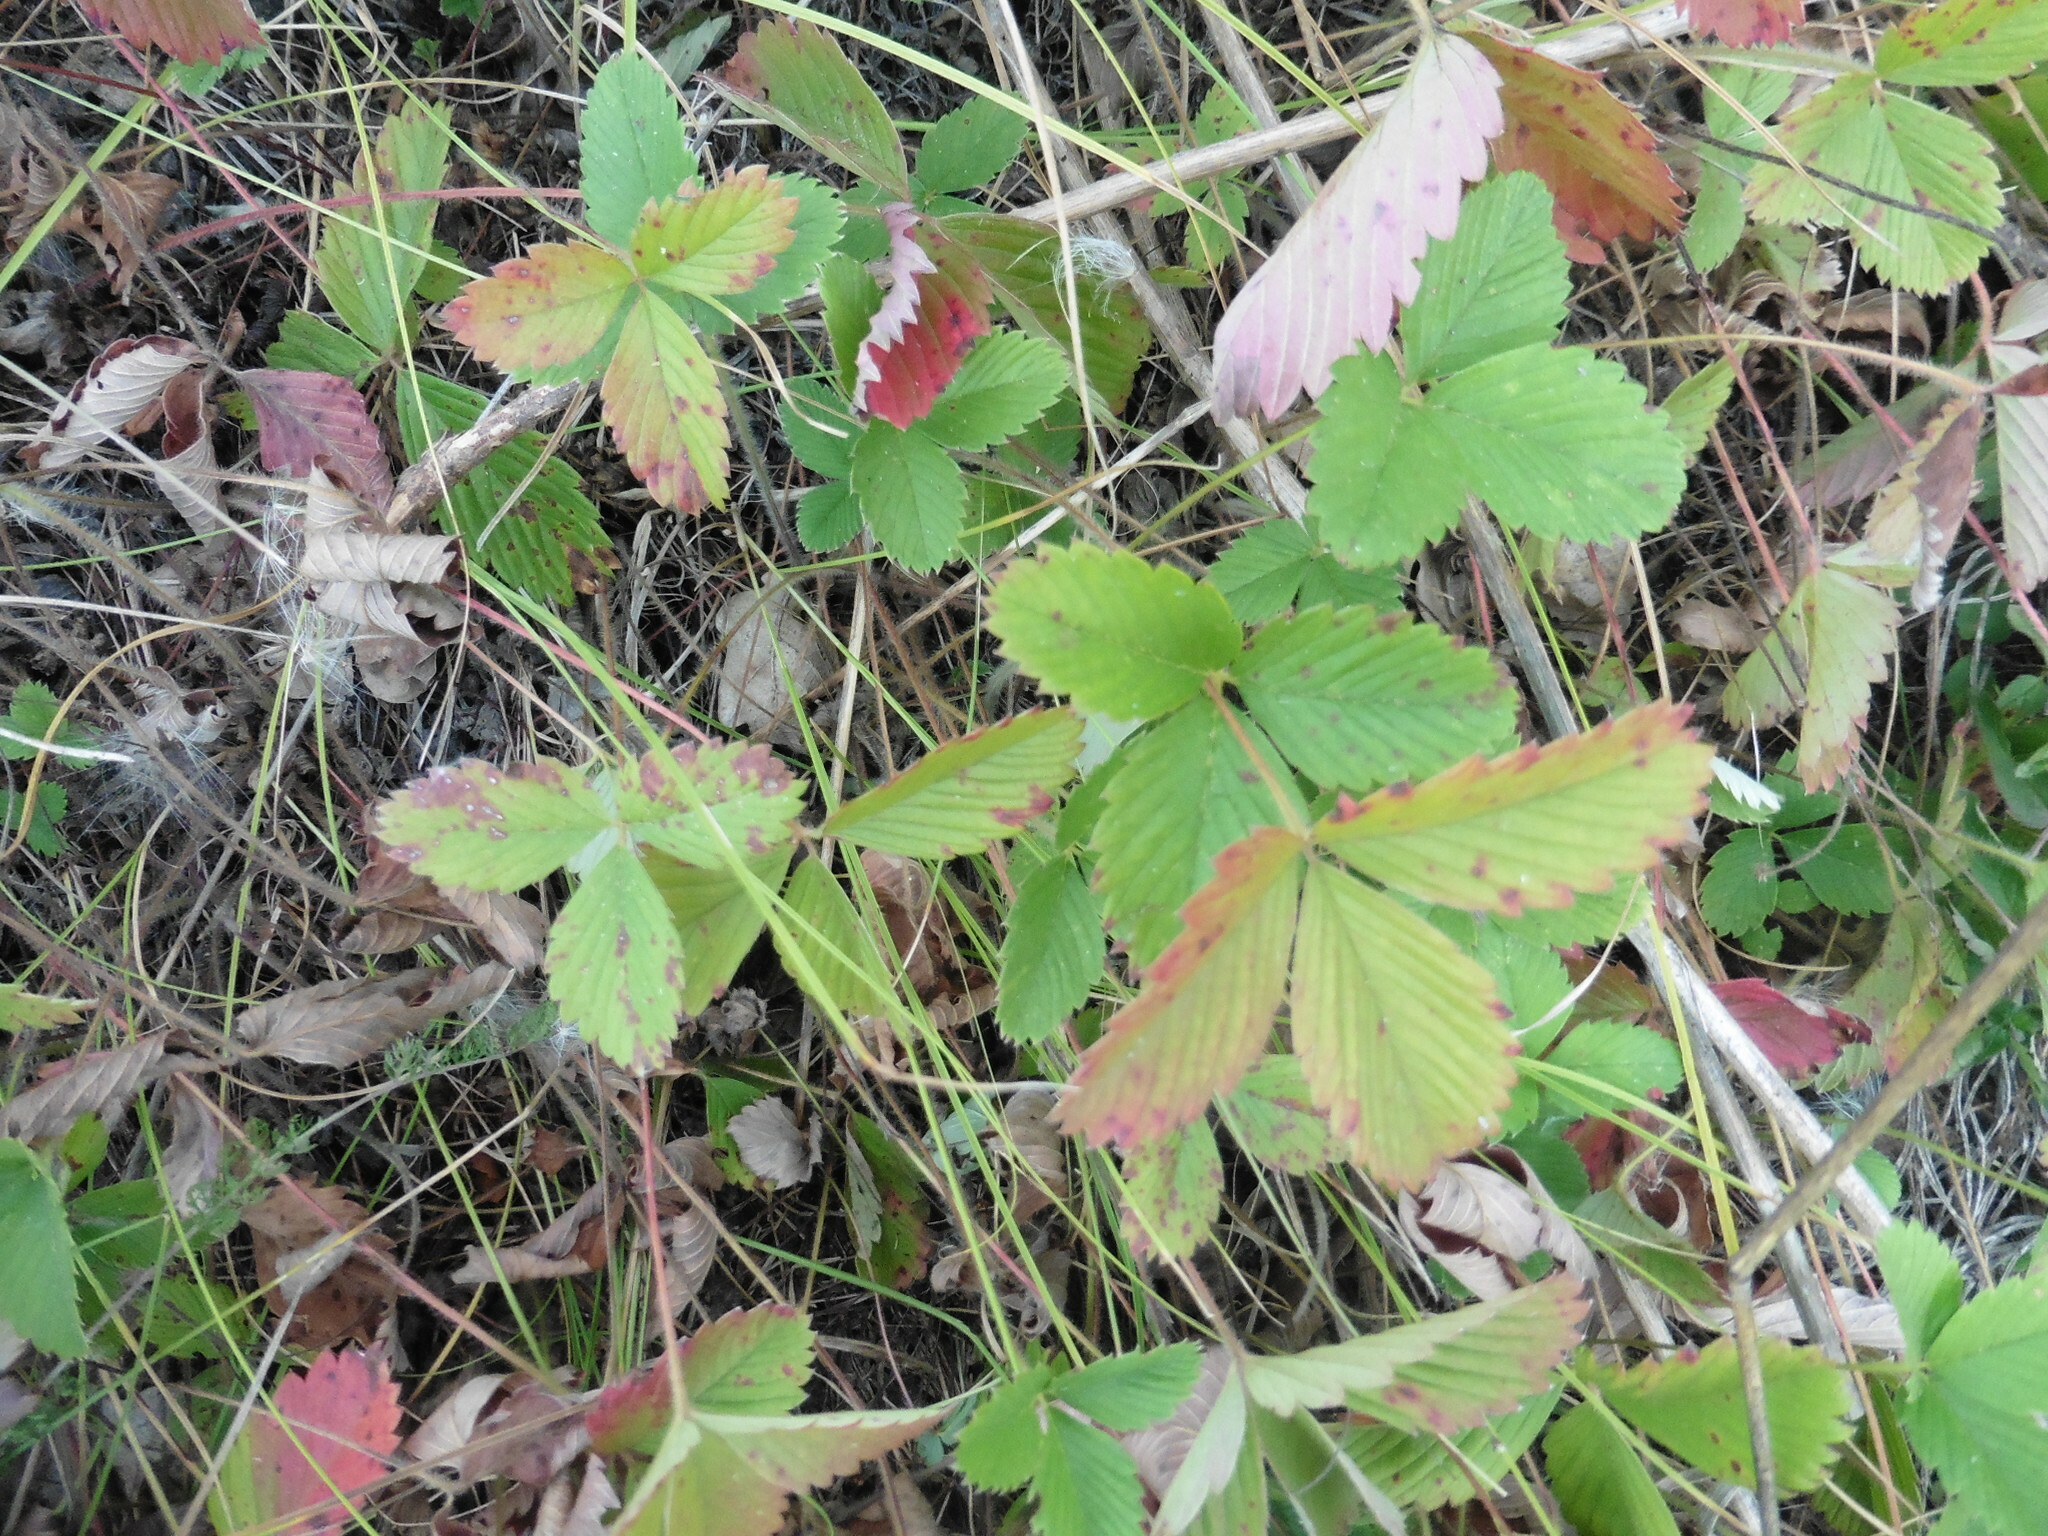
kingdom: Plantae
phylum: Tracheophyta
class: Magnoliopsida
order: Rosales
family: Rosaceae
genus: Fragaria
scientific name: Fragaria viridis
